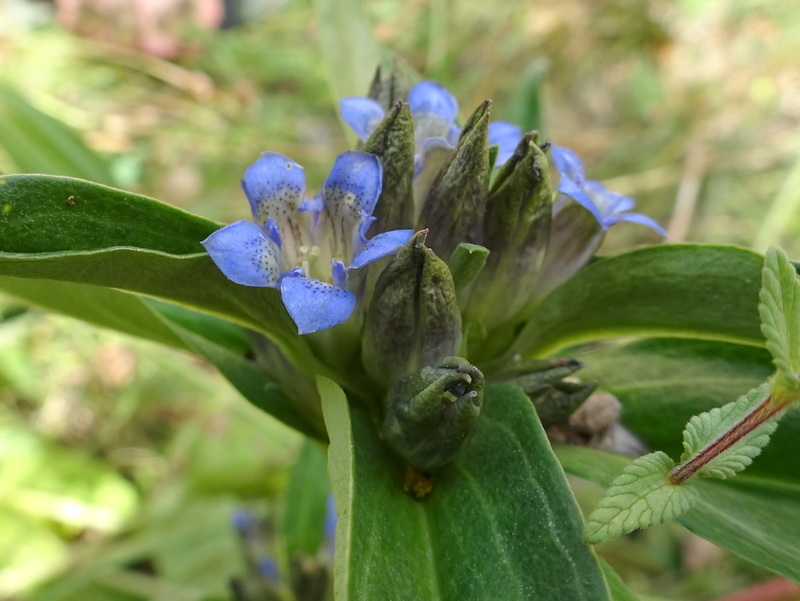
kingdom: Plantae
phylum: Tracheophyta
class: Magnoliopsida
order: Gentianales
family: Gentianaceae
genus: Gentiana
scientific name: Gentiana cruciata
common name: Cross gentian
